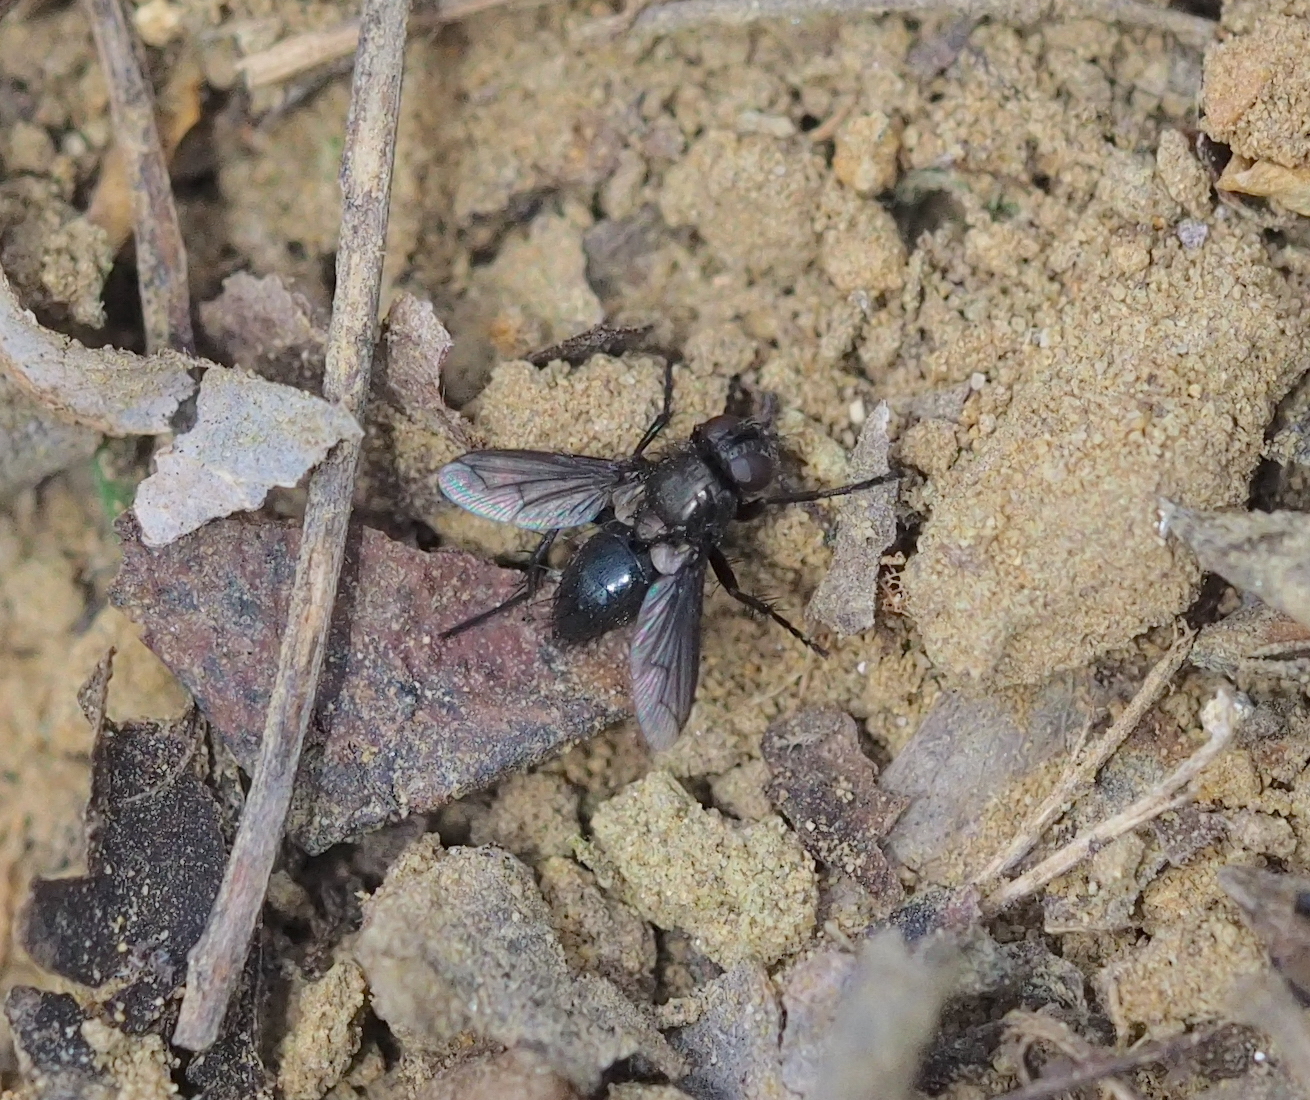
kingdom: Animalia
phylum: Arthropoda
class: Insecta
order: Diptera
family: Tachinidae
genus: Kirbya
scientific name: Kirbya moerens
